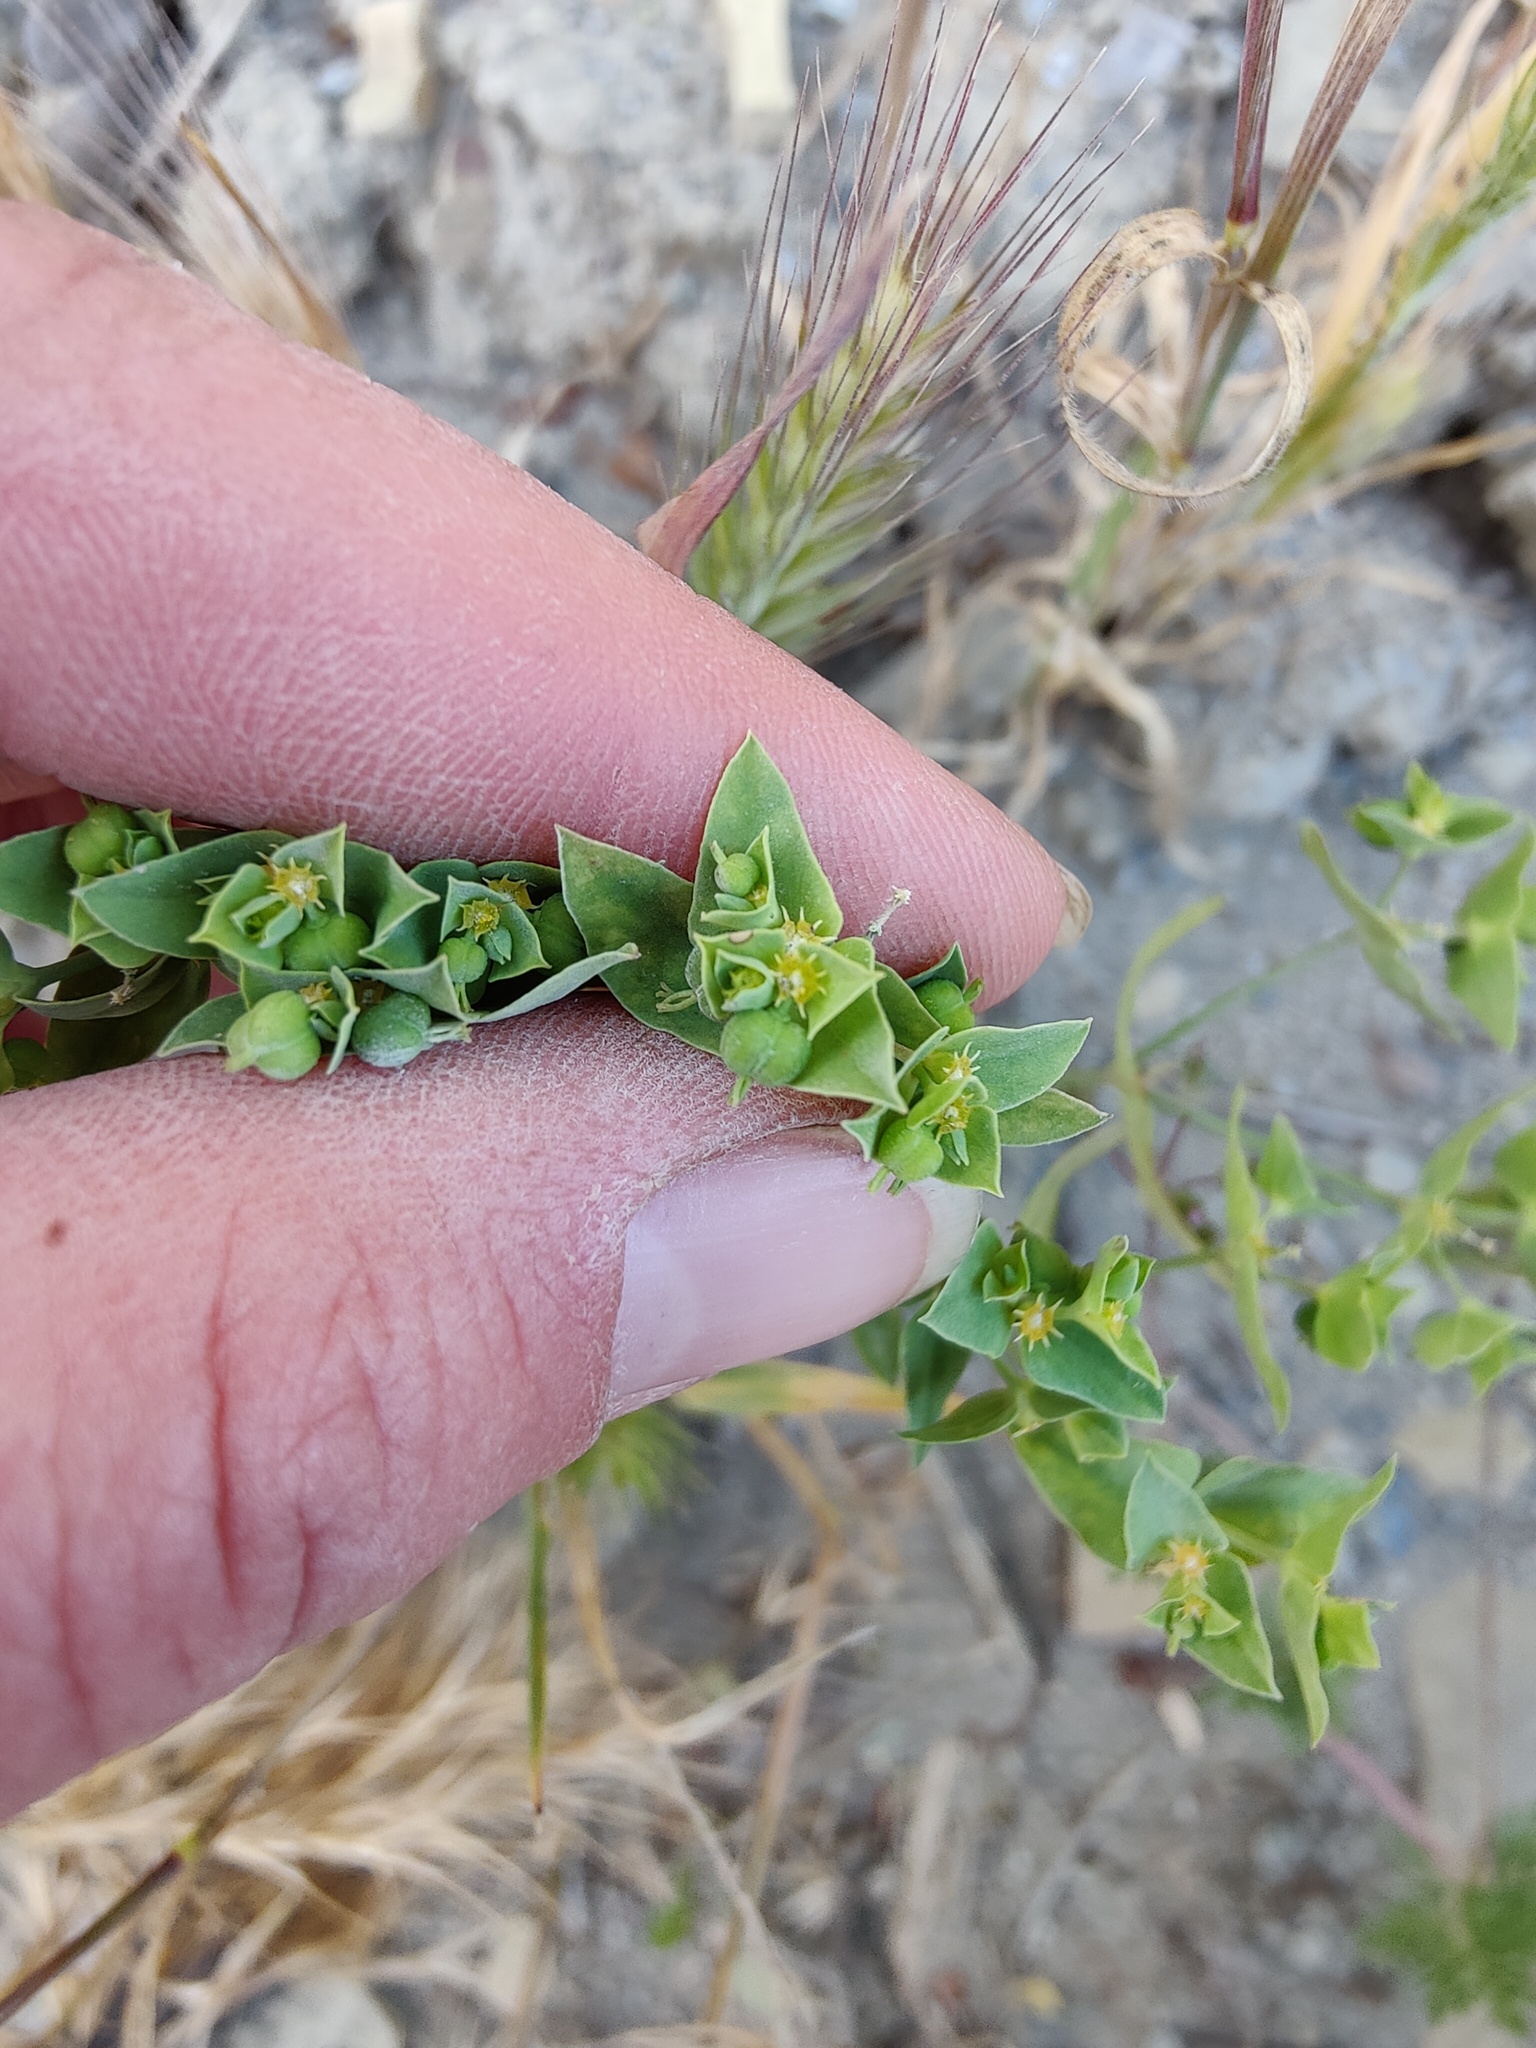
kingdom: Plantae
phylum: Tracheophyta
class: Magnoliopsida
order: Malpighiales
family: Euphorbiaceae
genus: Euphorbia
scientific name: Euphorbia taurinensis
